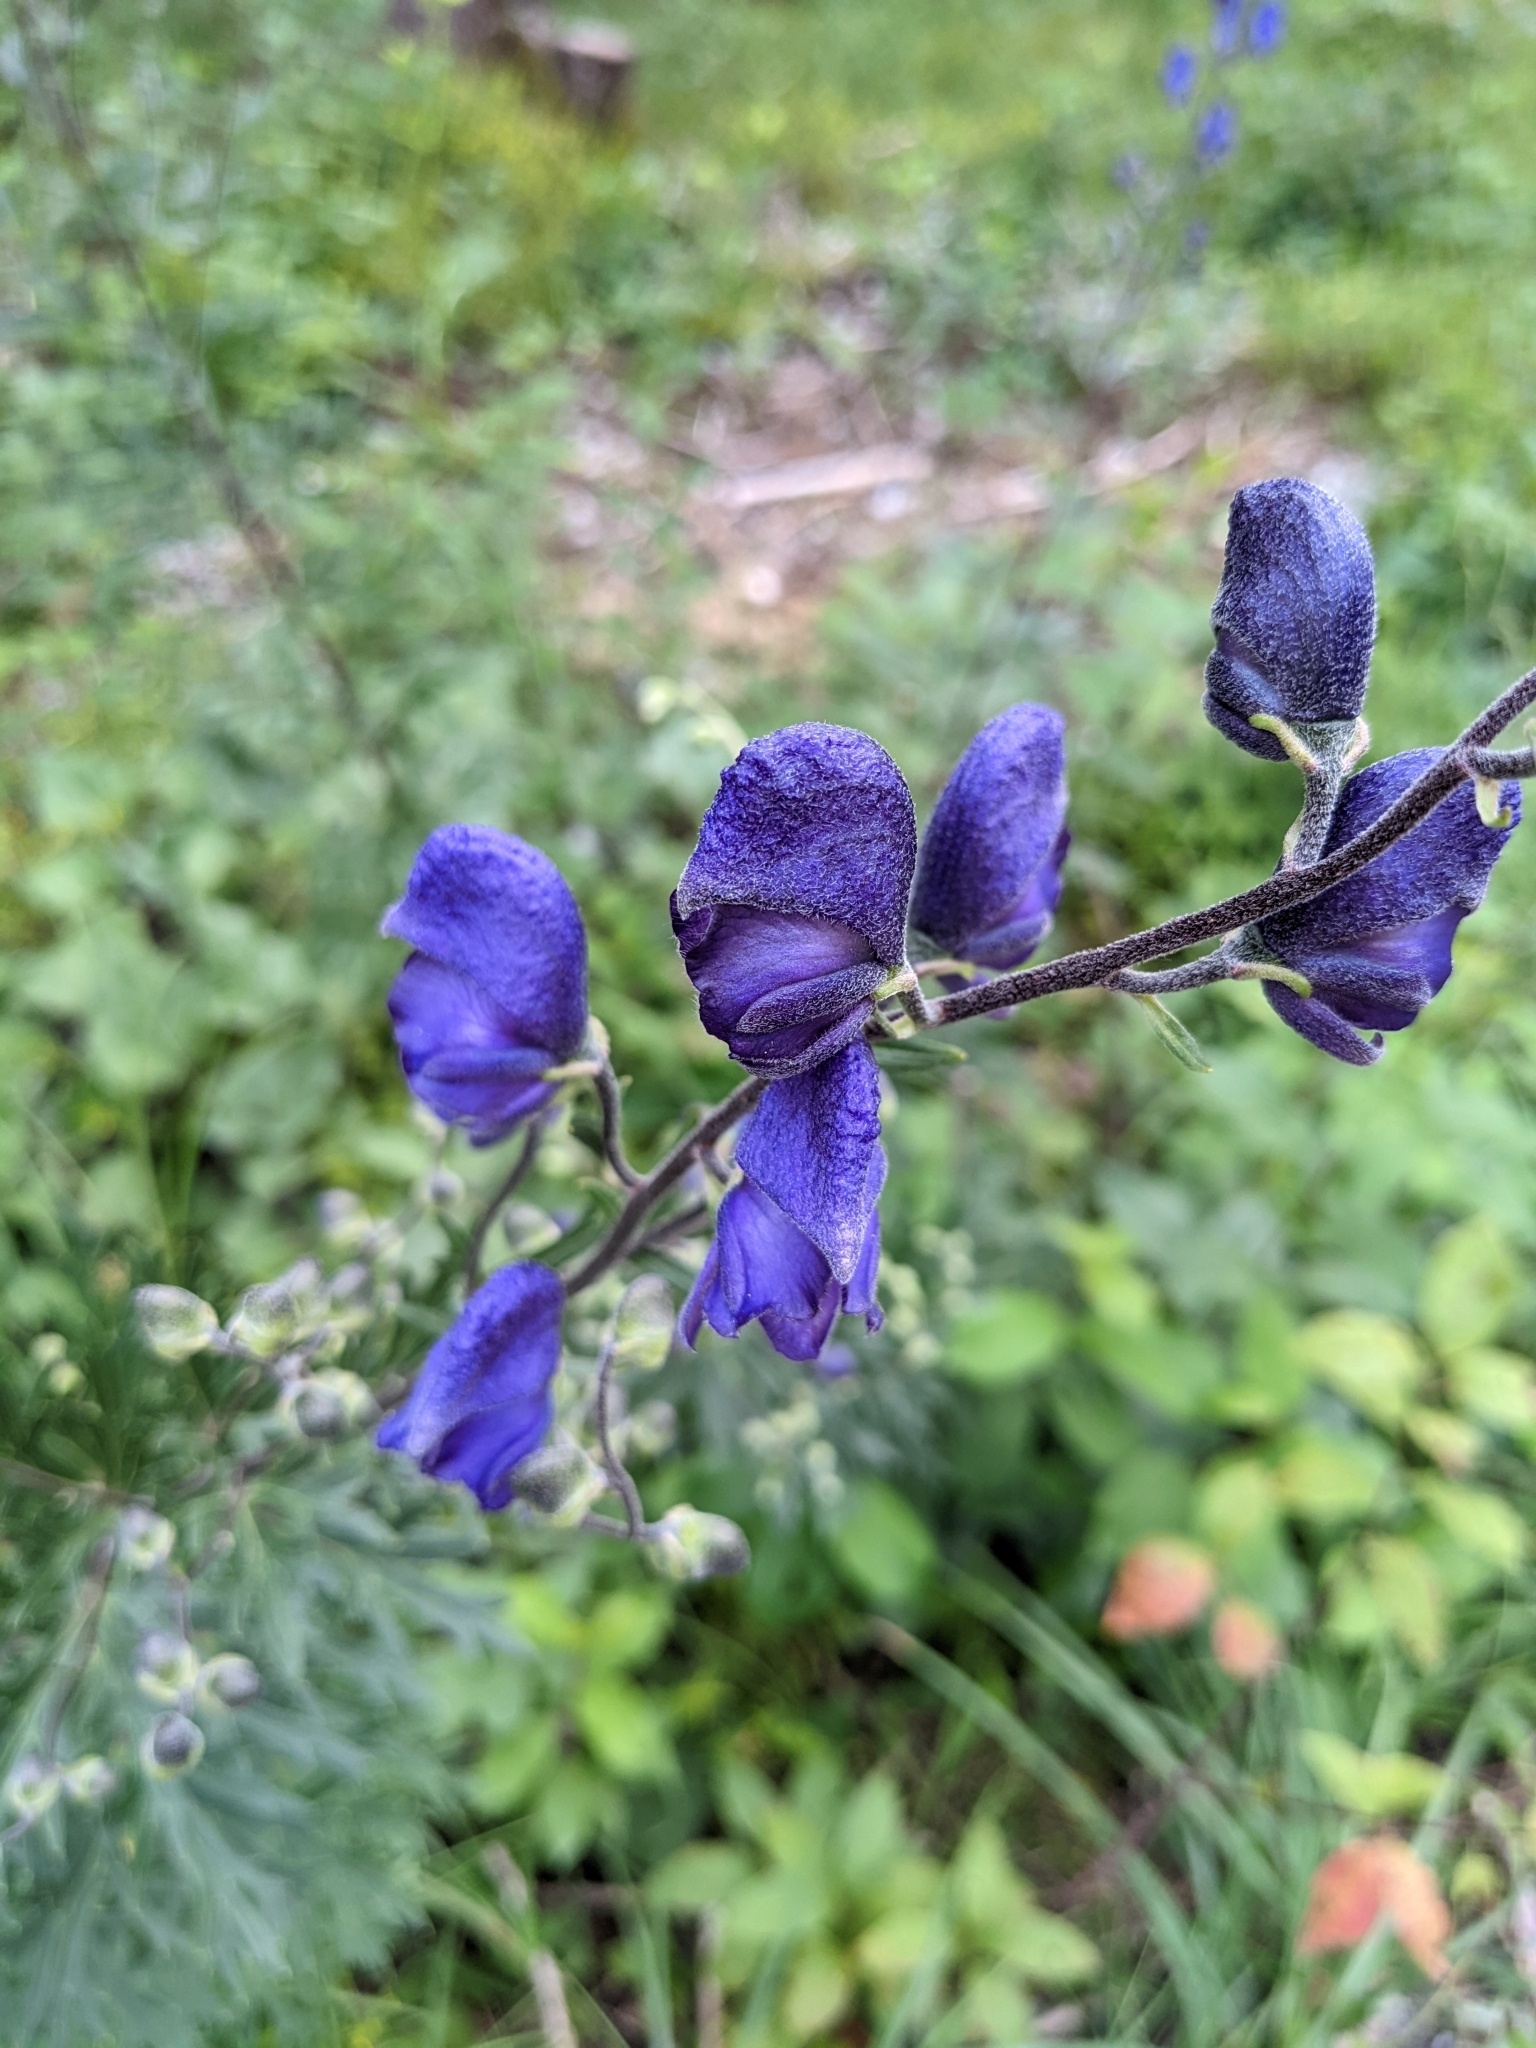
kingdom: Plantae
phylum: Tracheophyta
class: Magnoliopsida
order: Ranunculales
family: Ranunculaceae
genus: Aconitum
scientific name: Aconitum napellus
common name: Garden monkshood
